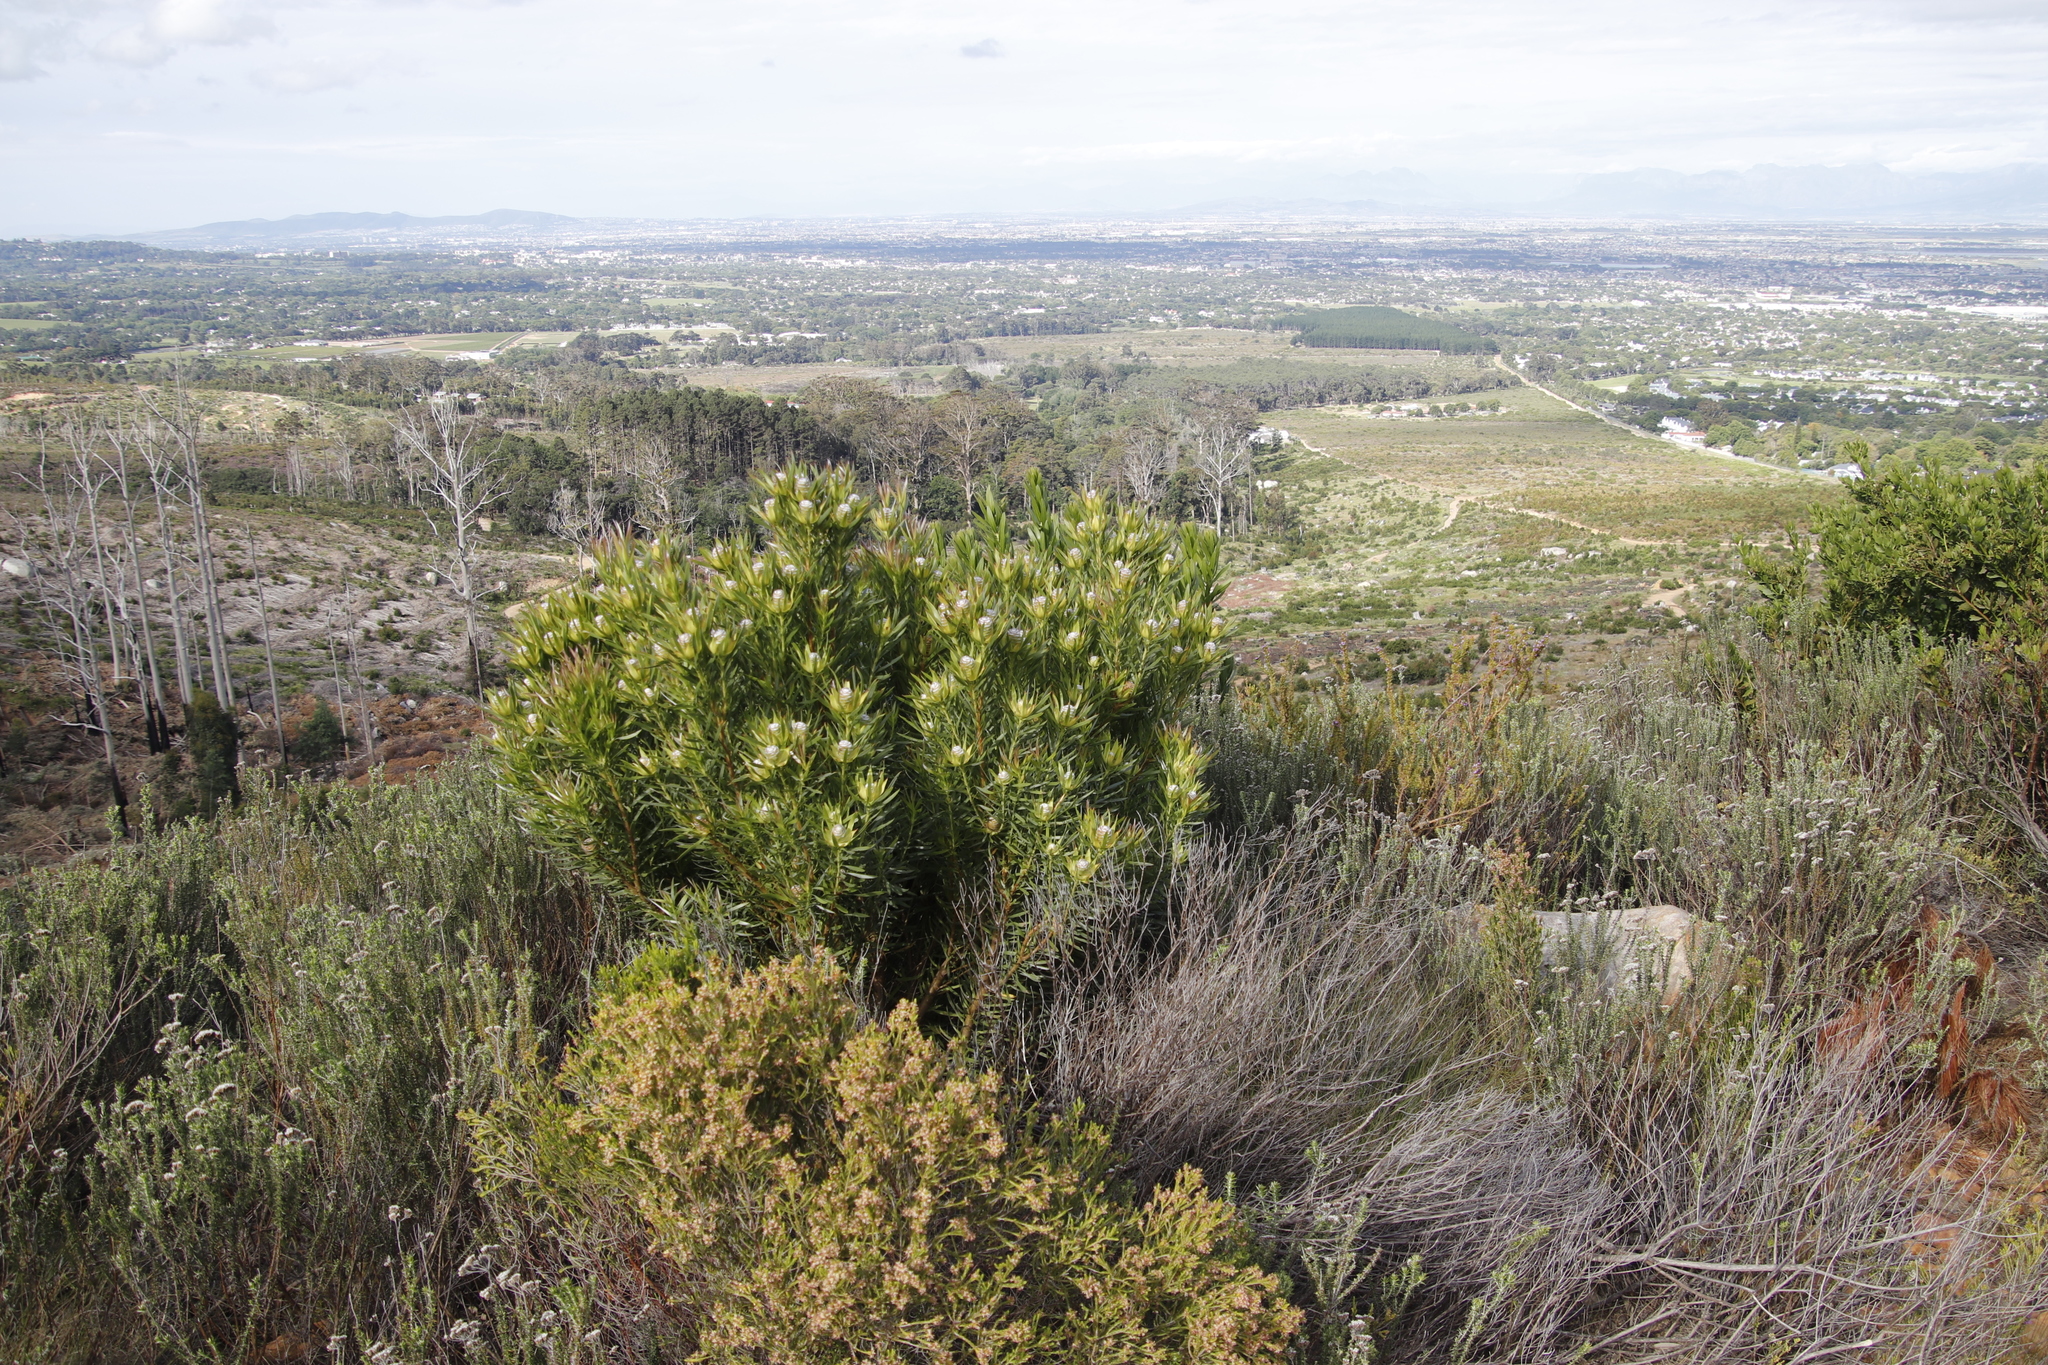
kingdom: Plantae
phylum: Tracheophyta
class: Magnoliopsida
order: Proteales
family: Proteaceae
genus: Leucadendron
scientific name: Leucadendron xanthoconus
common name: Sickle-leaf conebush
